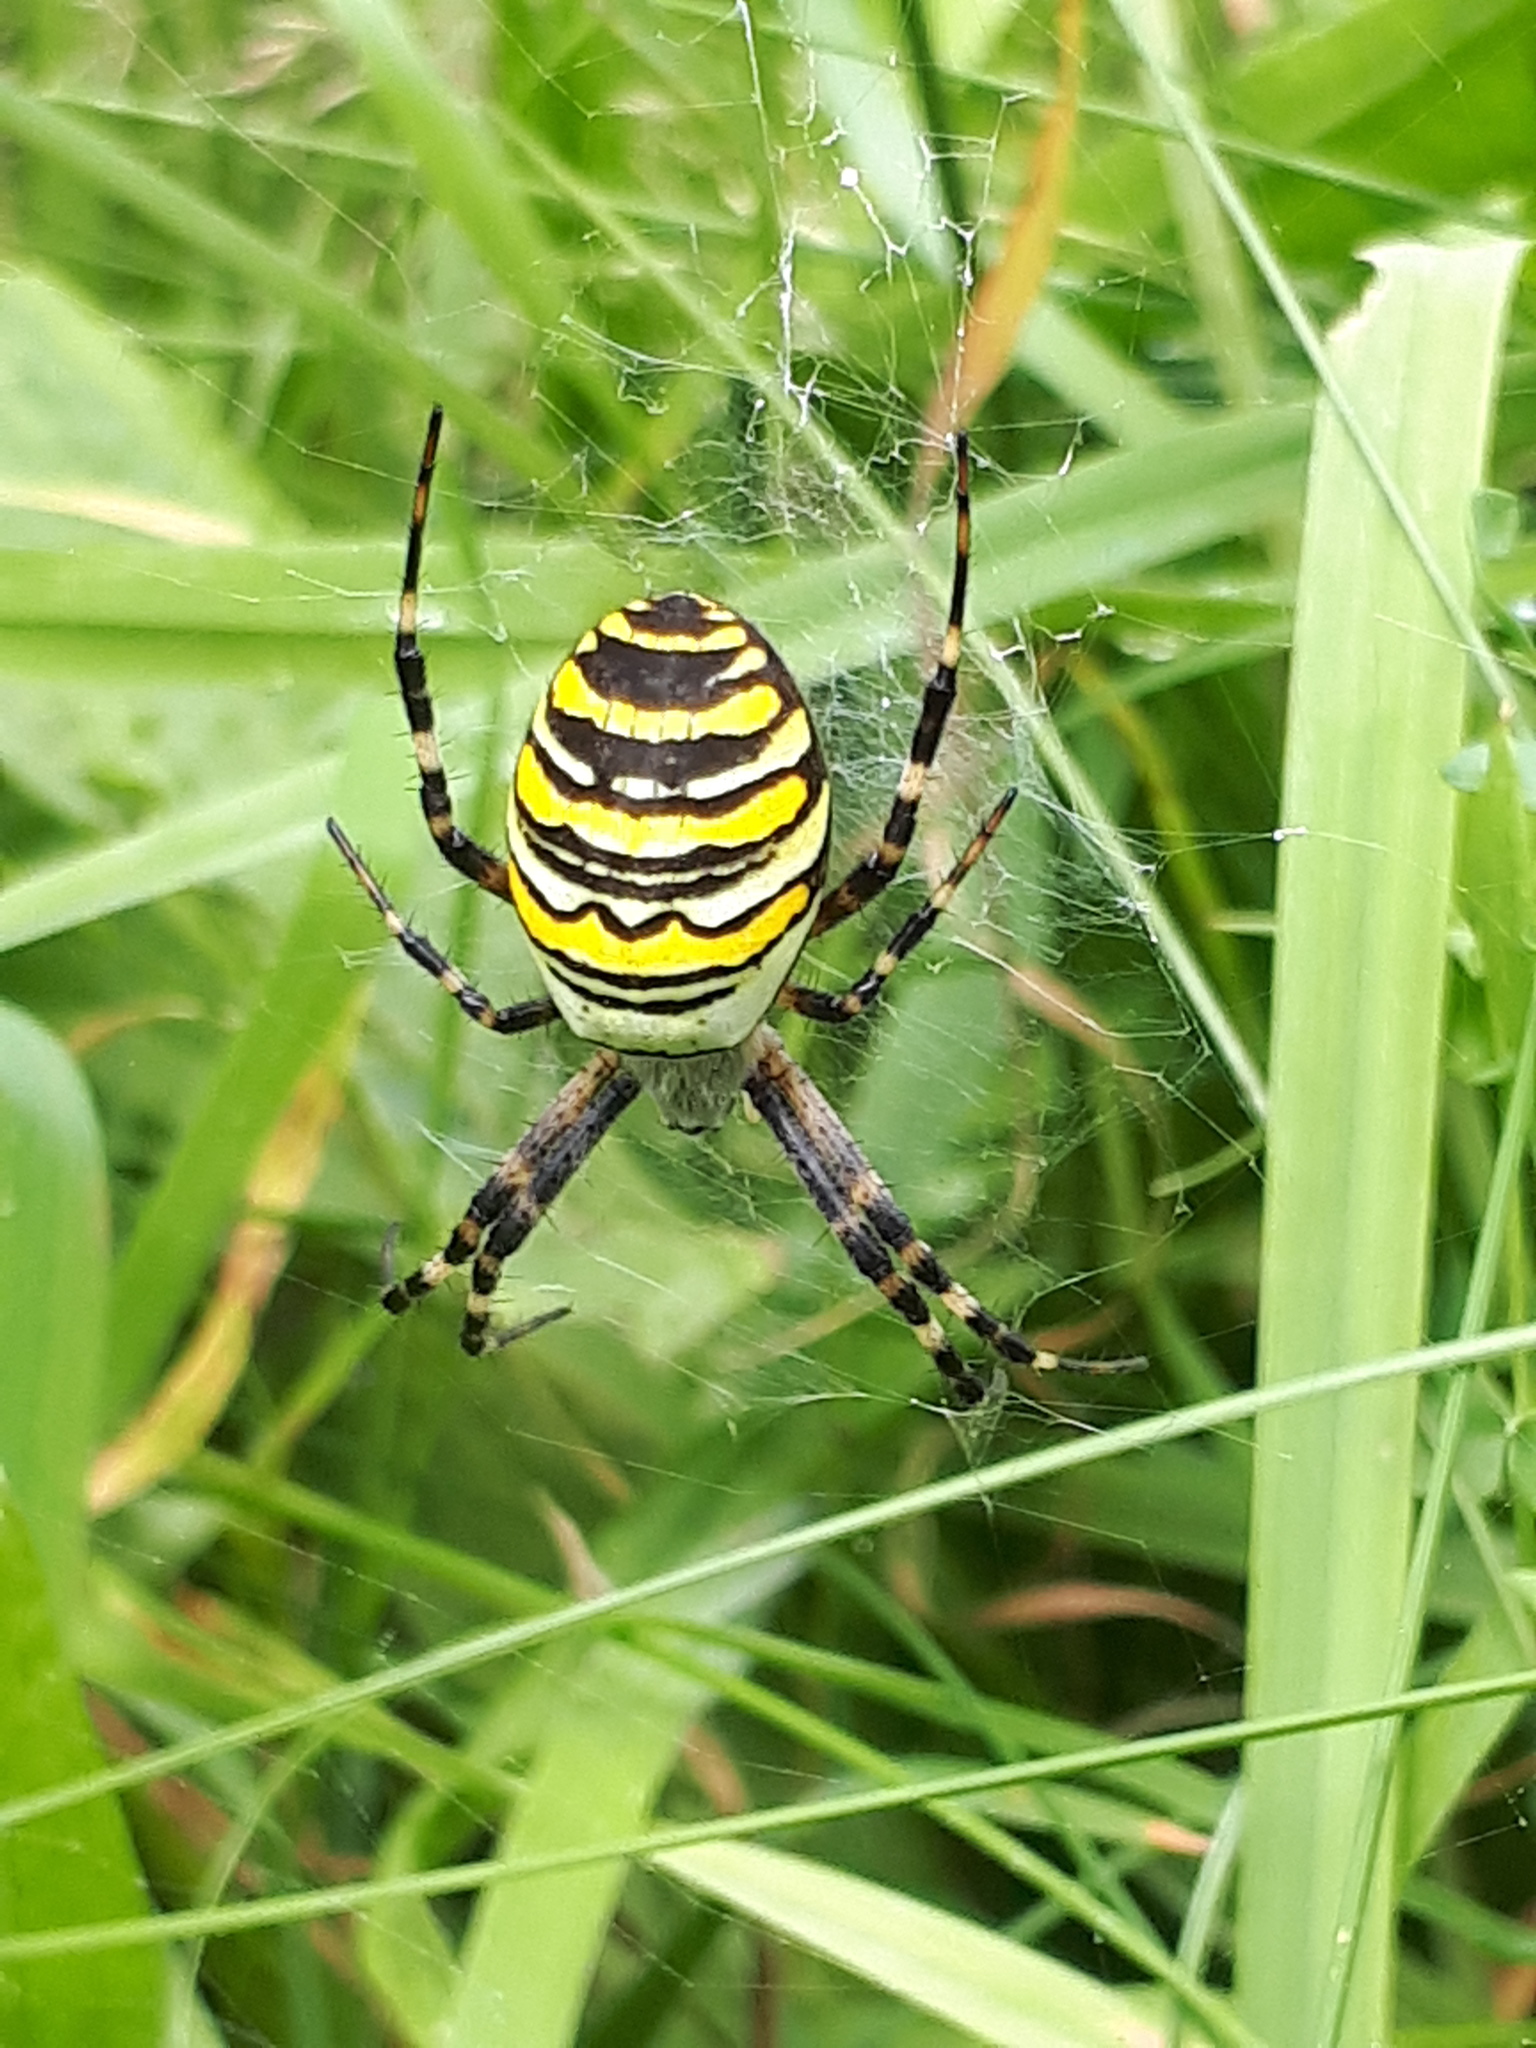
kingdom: Animalia
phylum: Arthropoda
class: Arachnida
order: Araneae
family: Araneidae
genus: Argiope
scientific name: Argiope bruennichi
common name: Wasp spider
